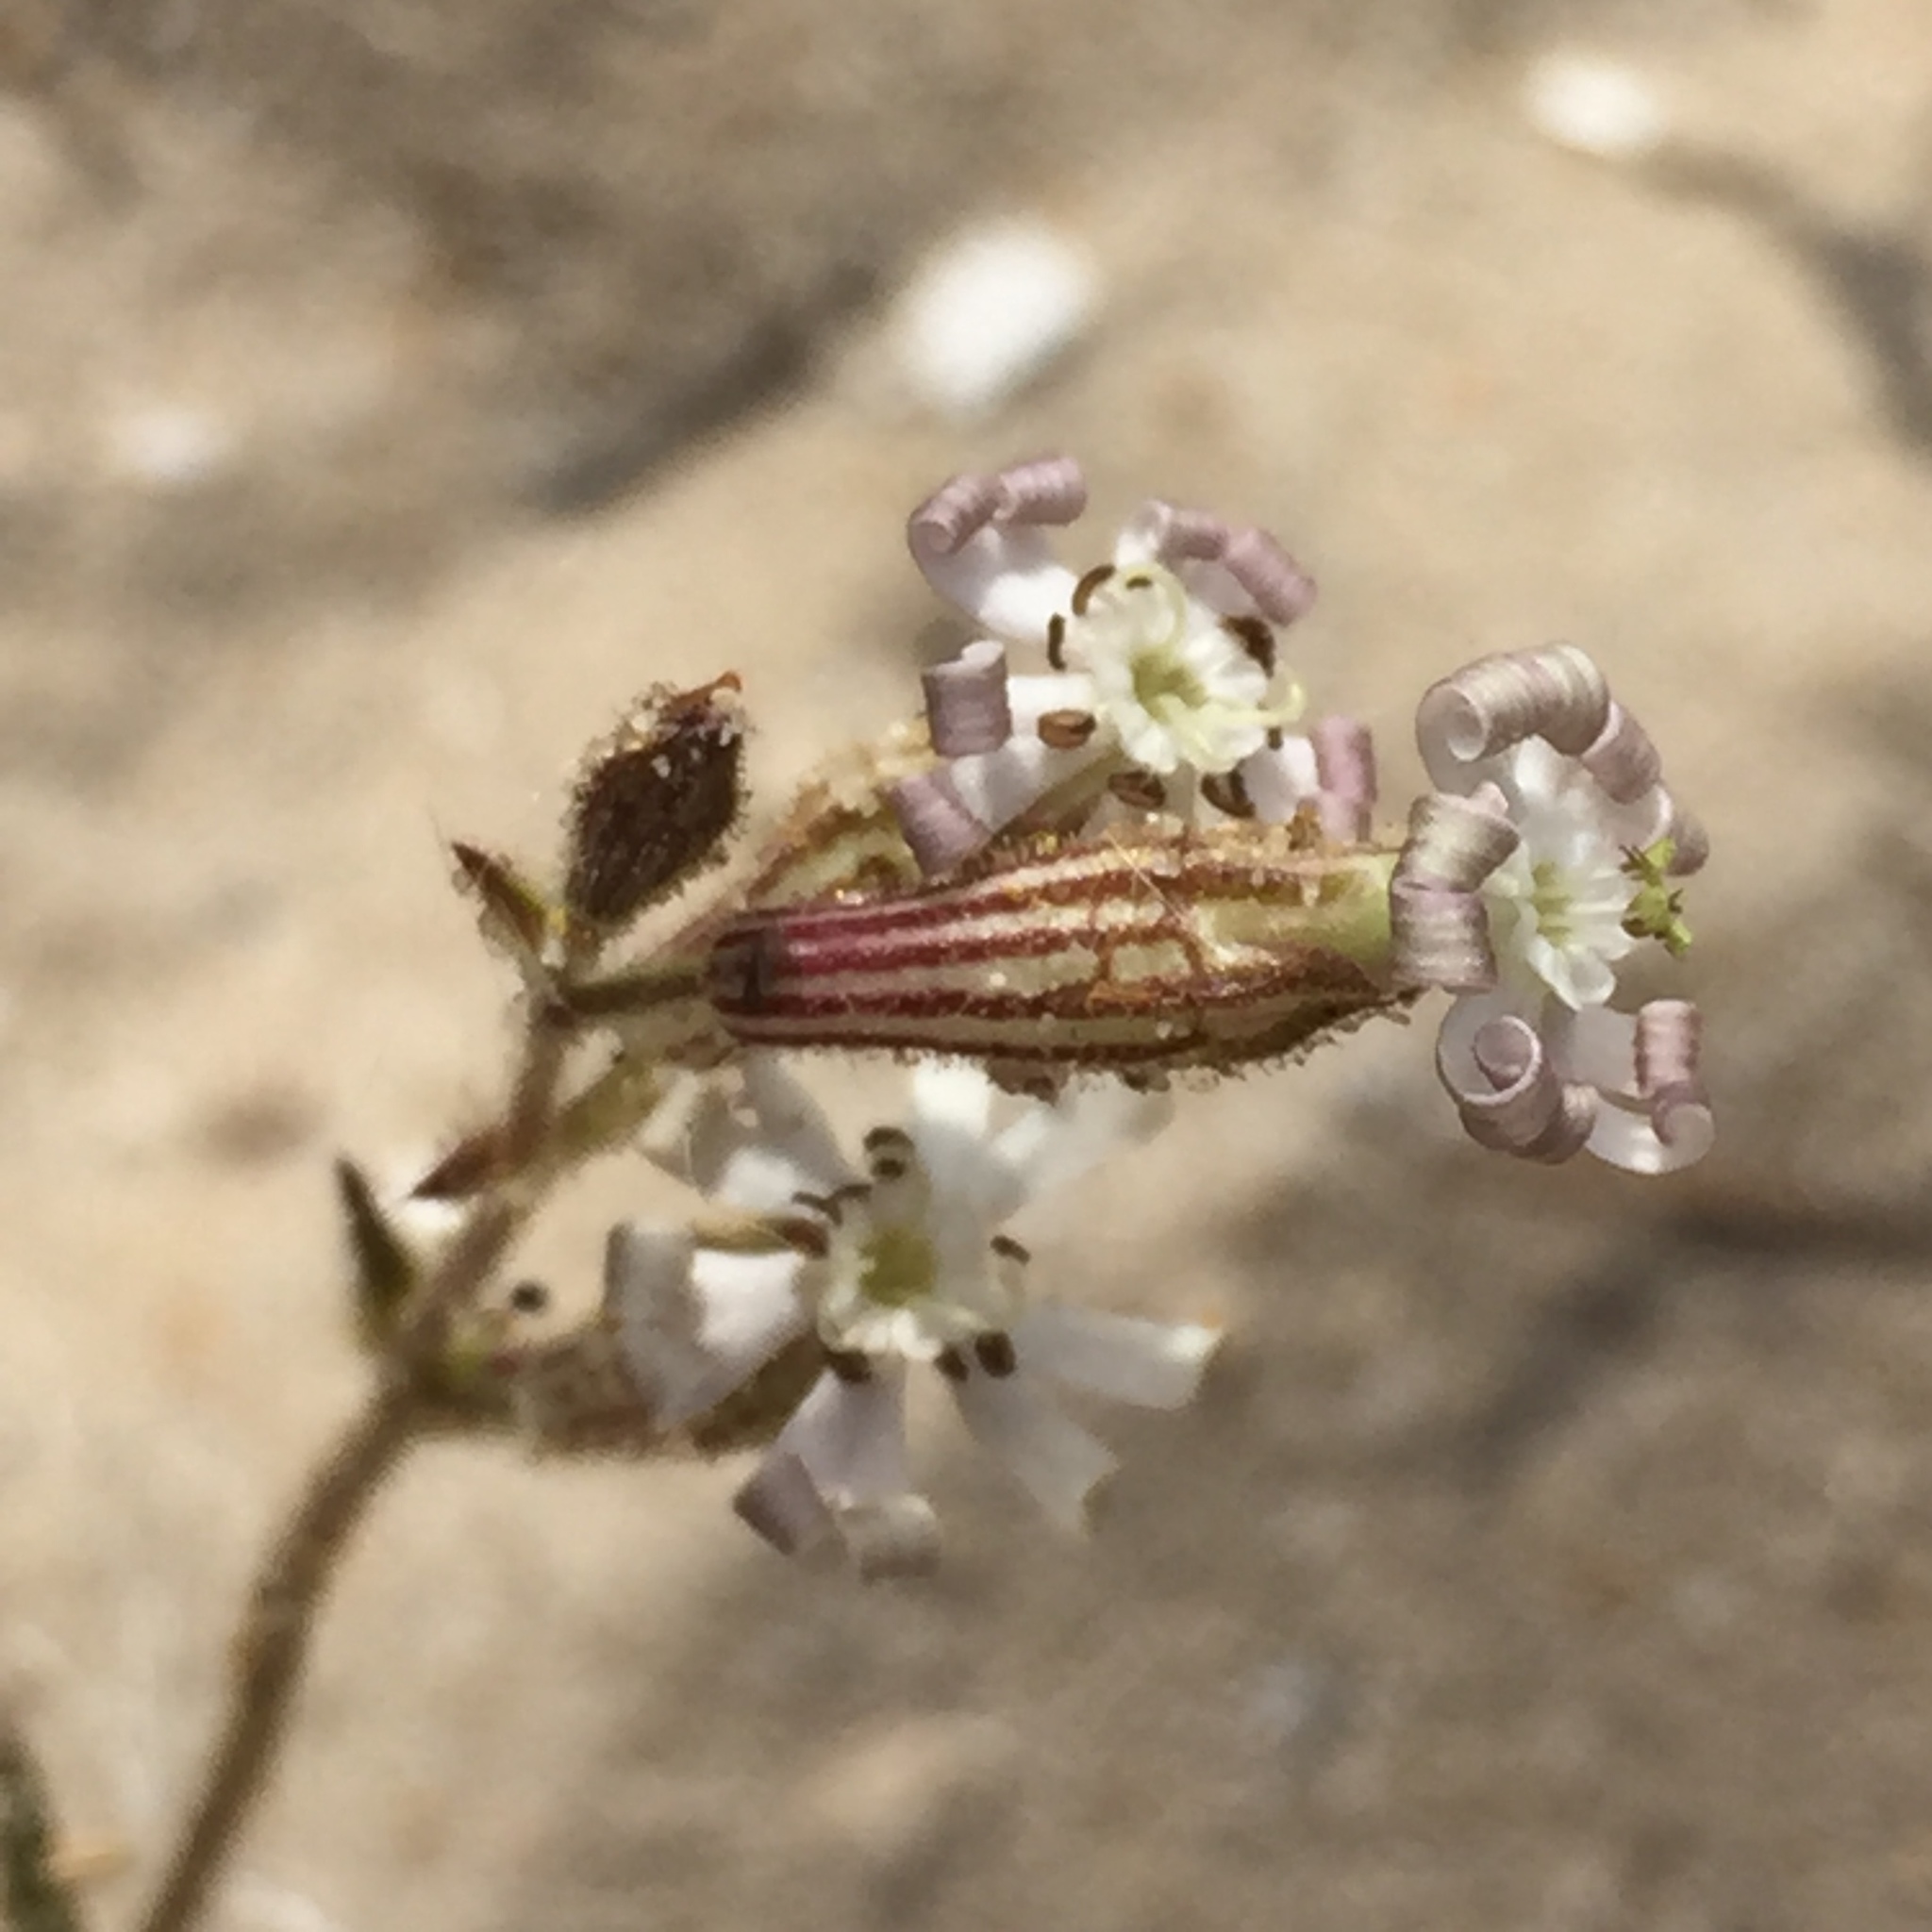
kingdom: Plantae
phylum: Tracheophyta
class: Magnoliopsida
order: Caryophyllales
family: Caryophyllaceae
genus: Silene
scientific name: Silene nicaeensis
